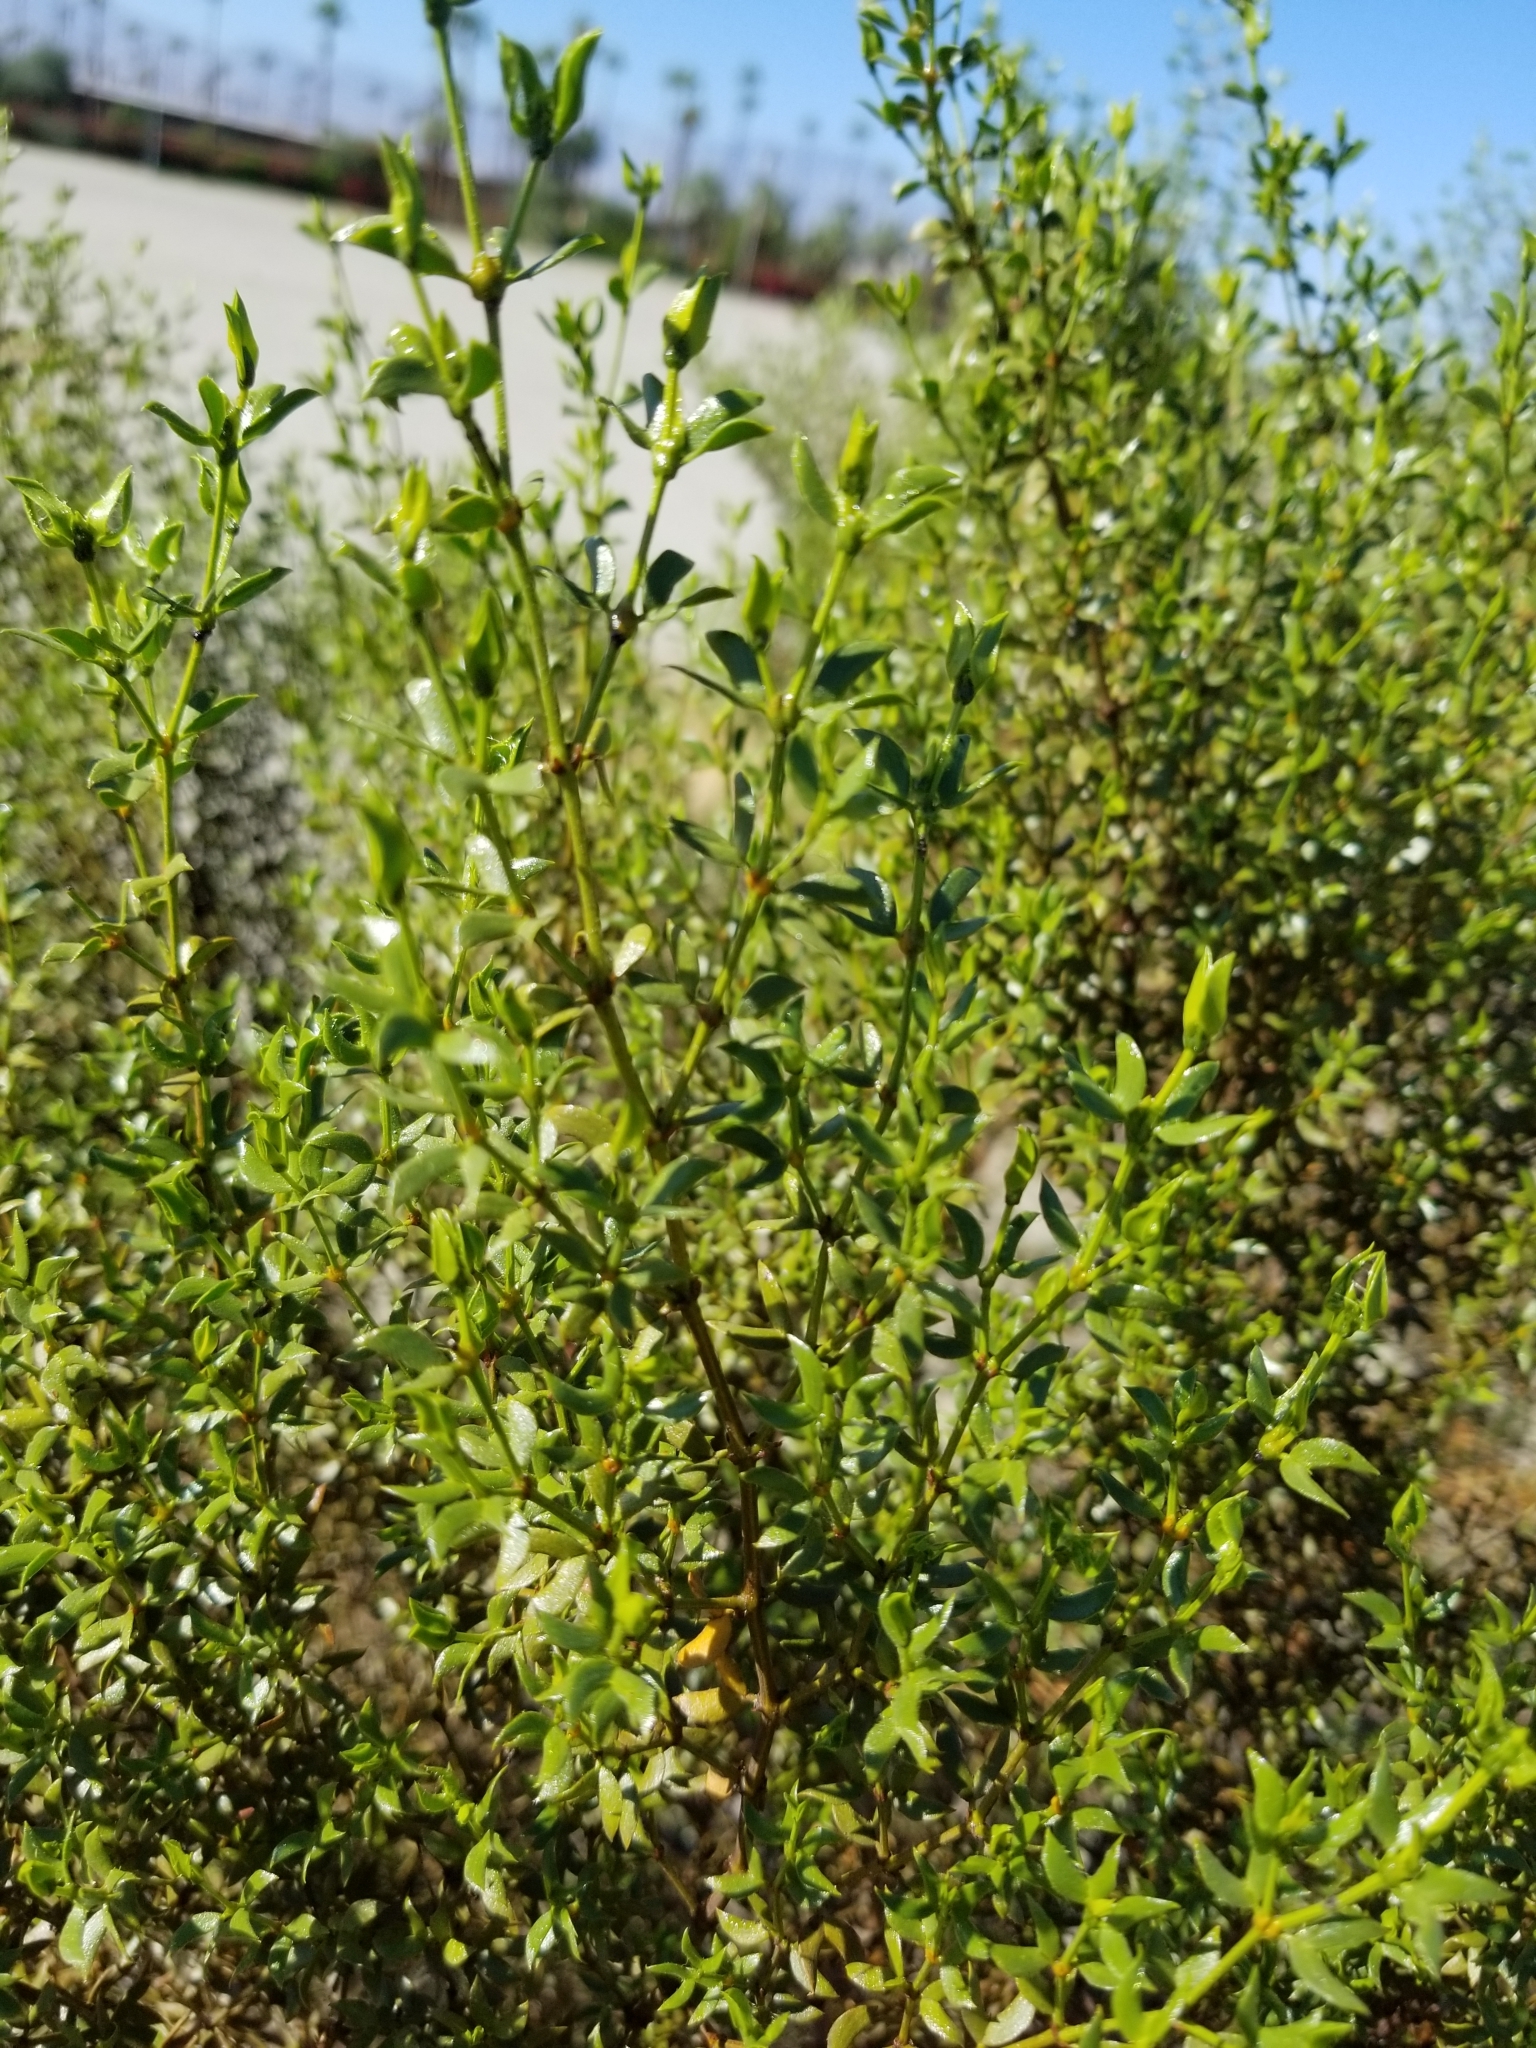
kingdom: Plantae
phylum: Tracheophyta
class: Magnoliopsida
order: Zygophyllales
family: Zygophyllaceae
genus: Larrea
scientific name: Larrea tridentata
